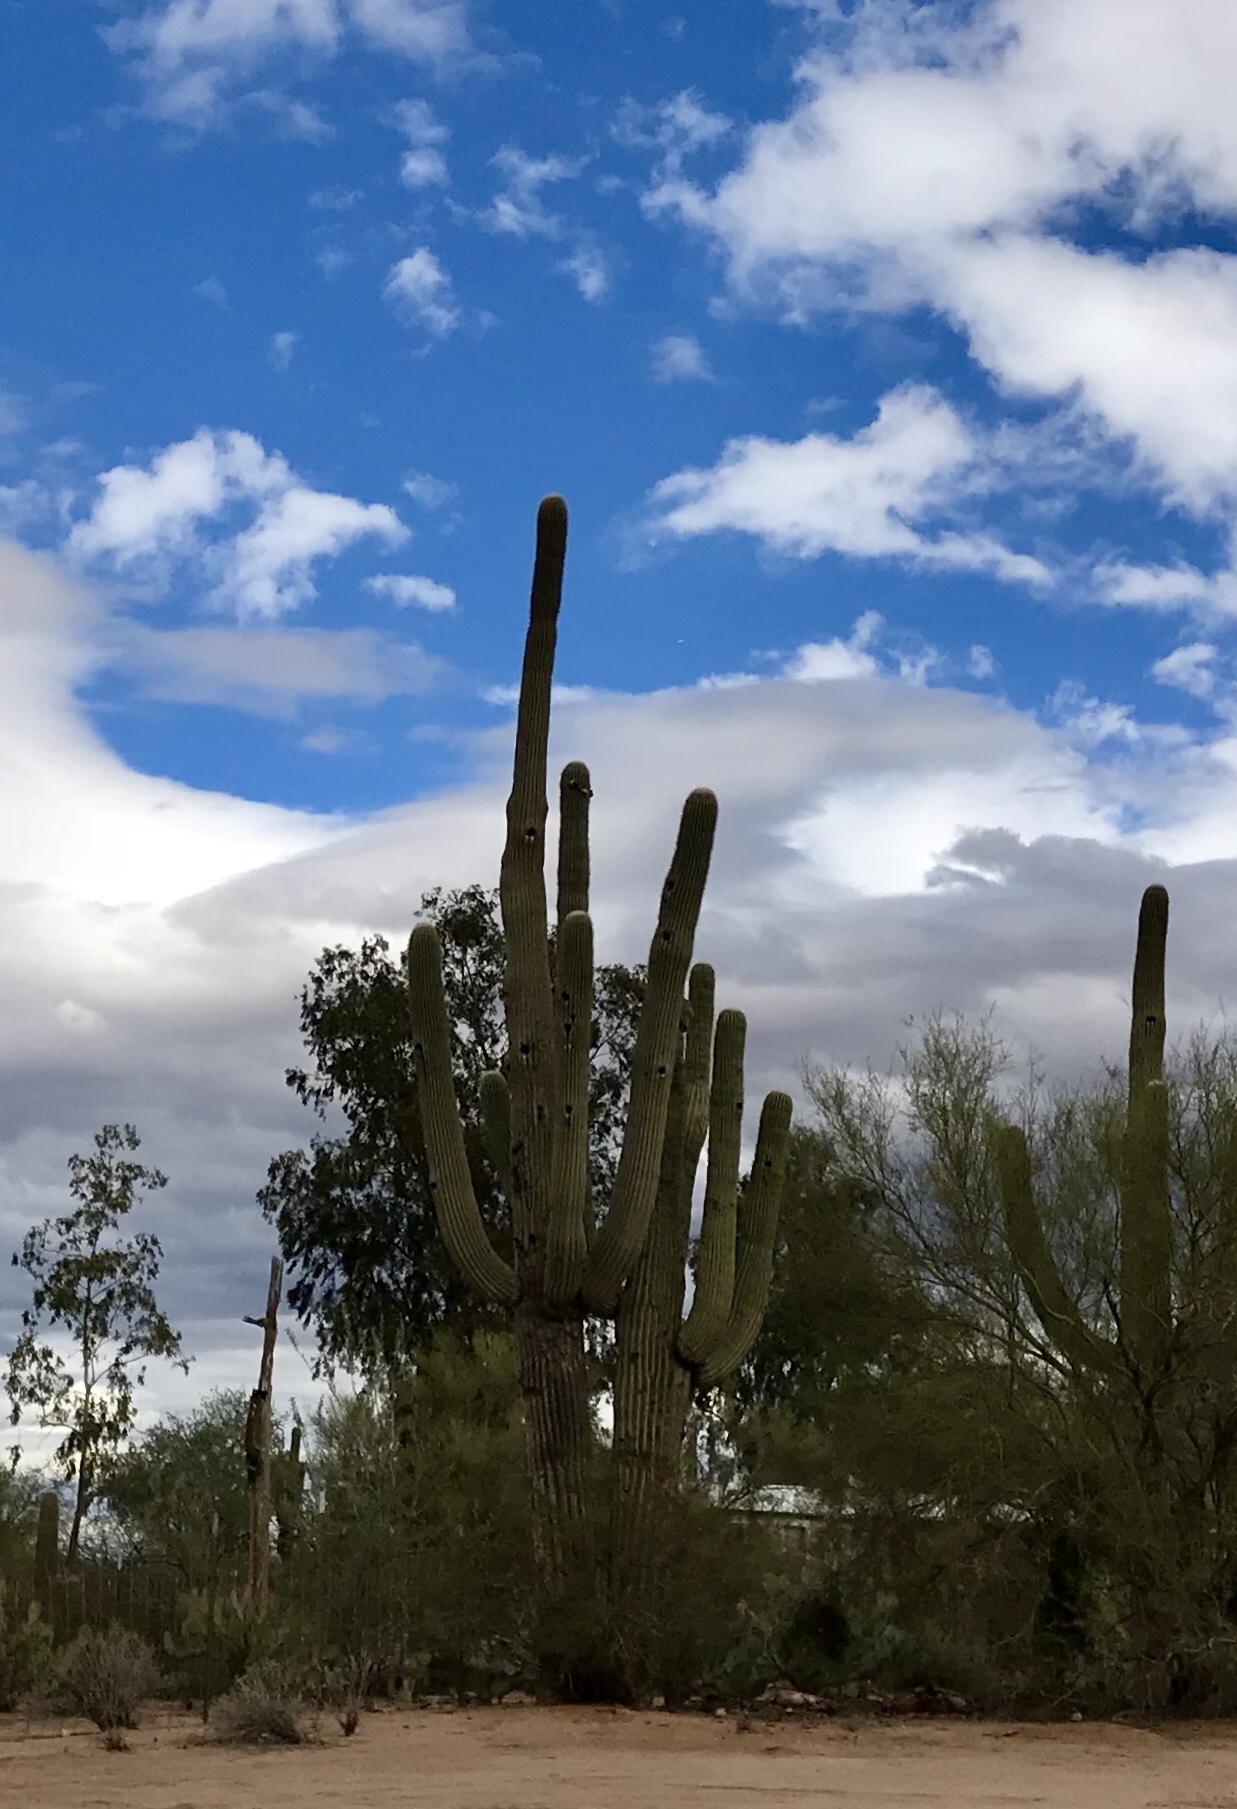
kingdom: Plantae
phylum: Tracheophyta
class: Magnoliopsida
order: Caryophyllales
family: Cactaceae
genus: Carnegiea
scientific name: Carnegiea gigantea
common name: Saguaro
